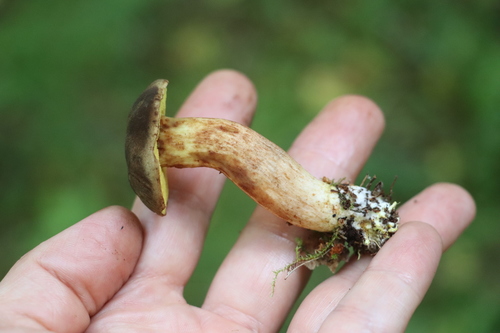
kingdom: Fungi
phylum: Basidiomycota
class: Agaricomycetes
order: Boletales
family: Boletaceae
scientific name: Boletaceae
